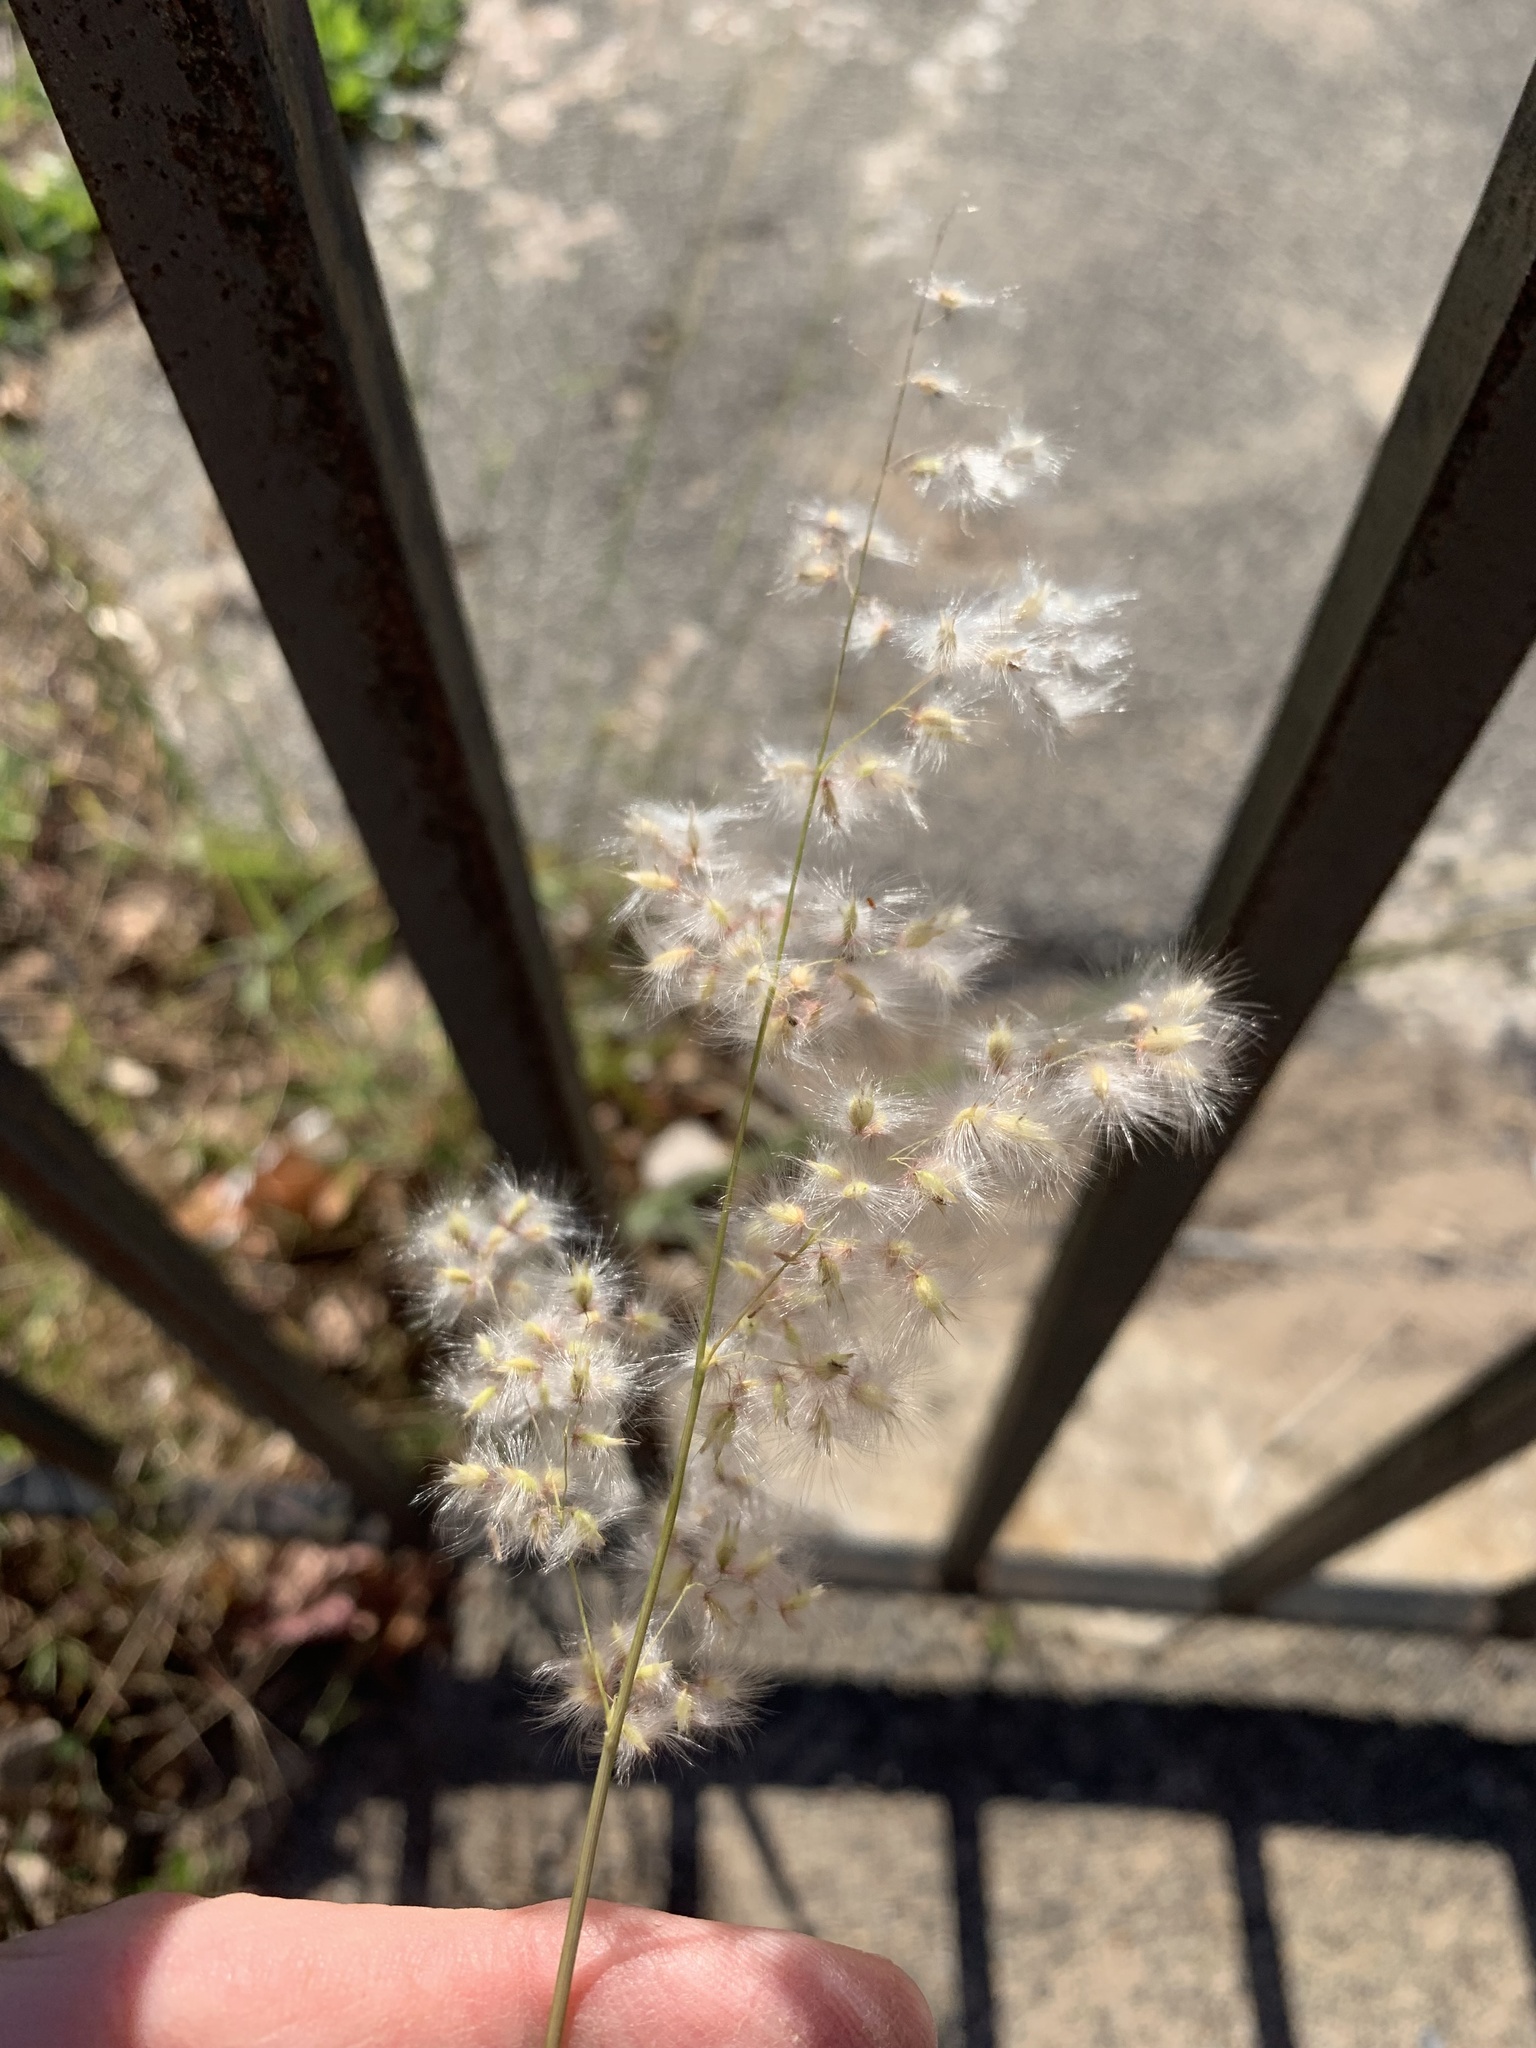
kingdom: Plantae
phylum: Tracheophyta
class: Liliopsida
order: Poales
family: Poaceae
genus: Melinis
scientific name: Melinis repens
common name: Rose natal grass
